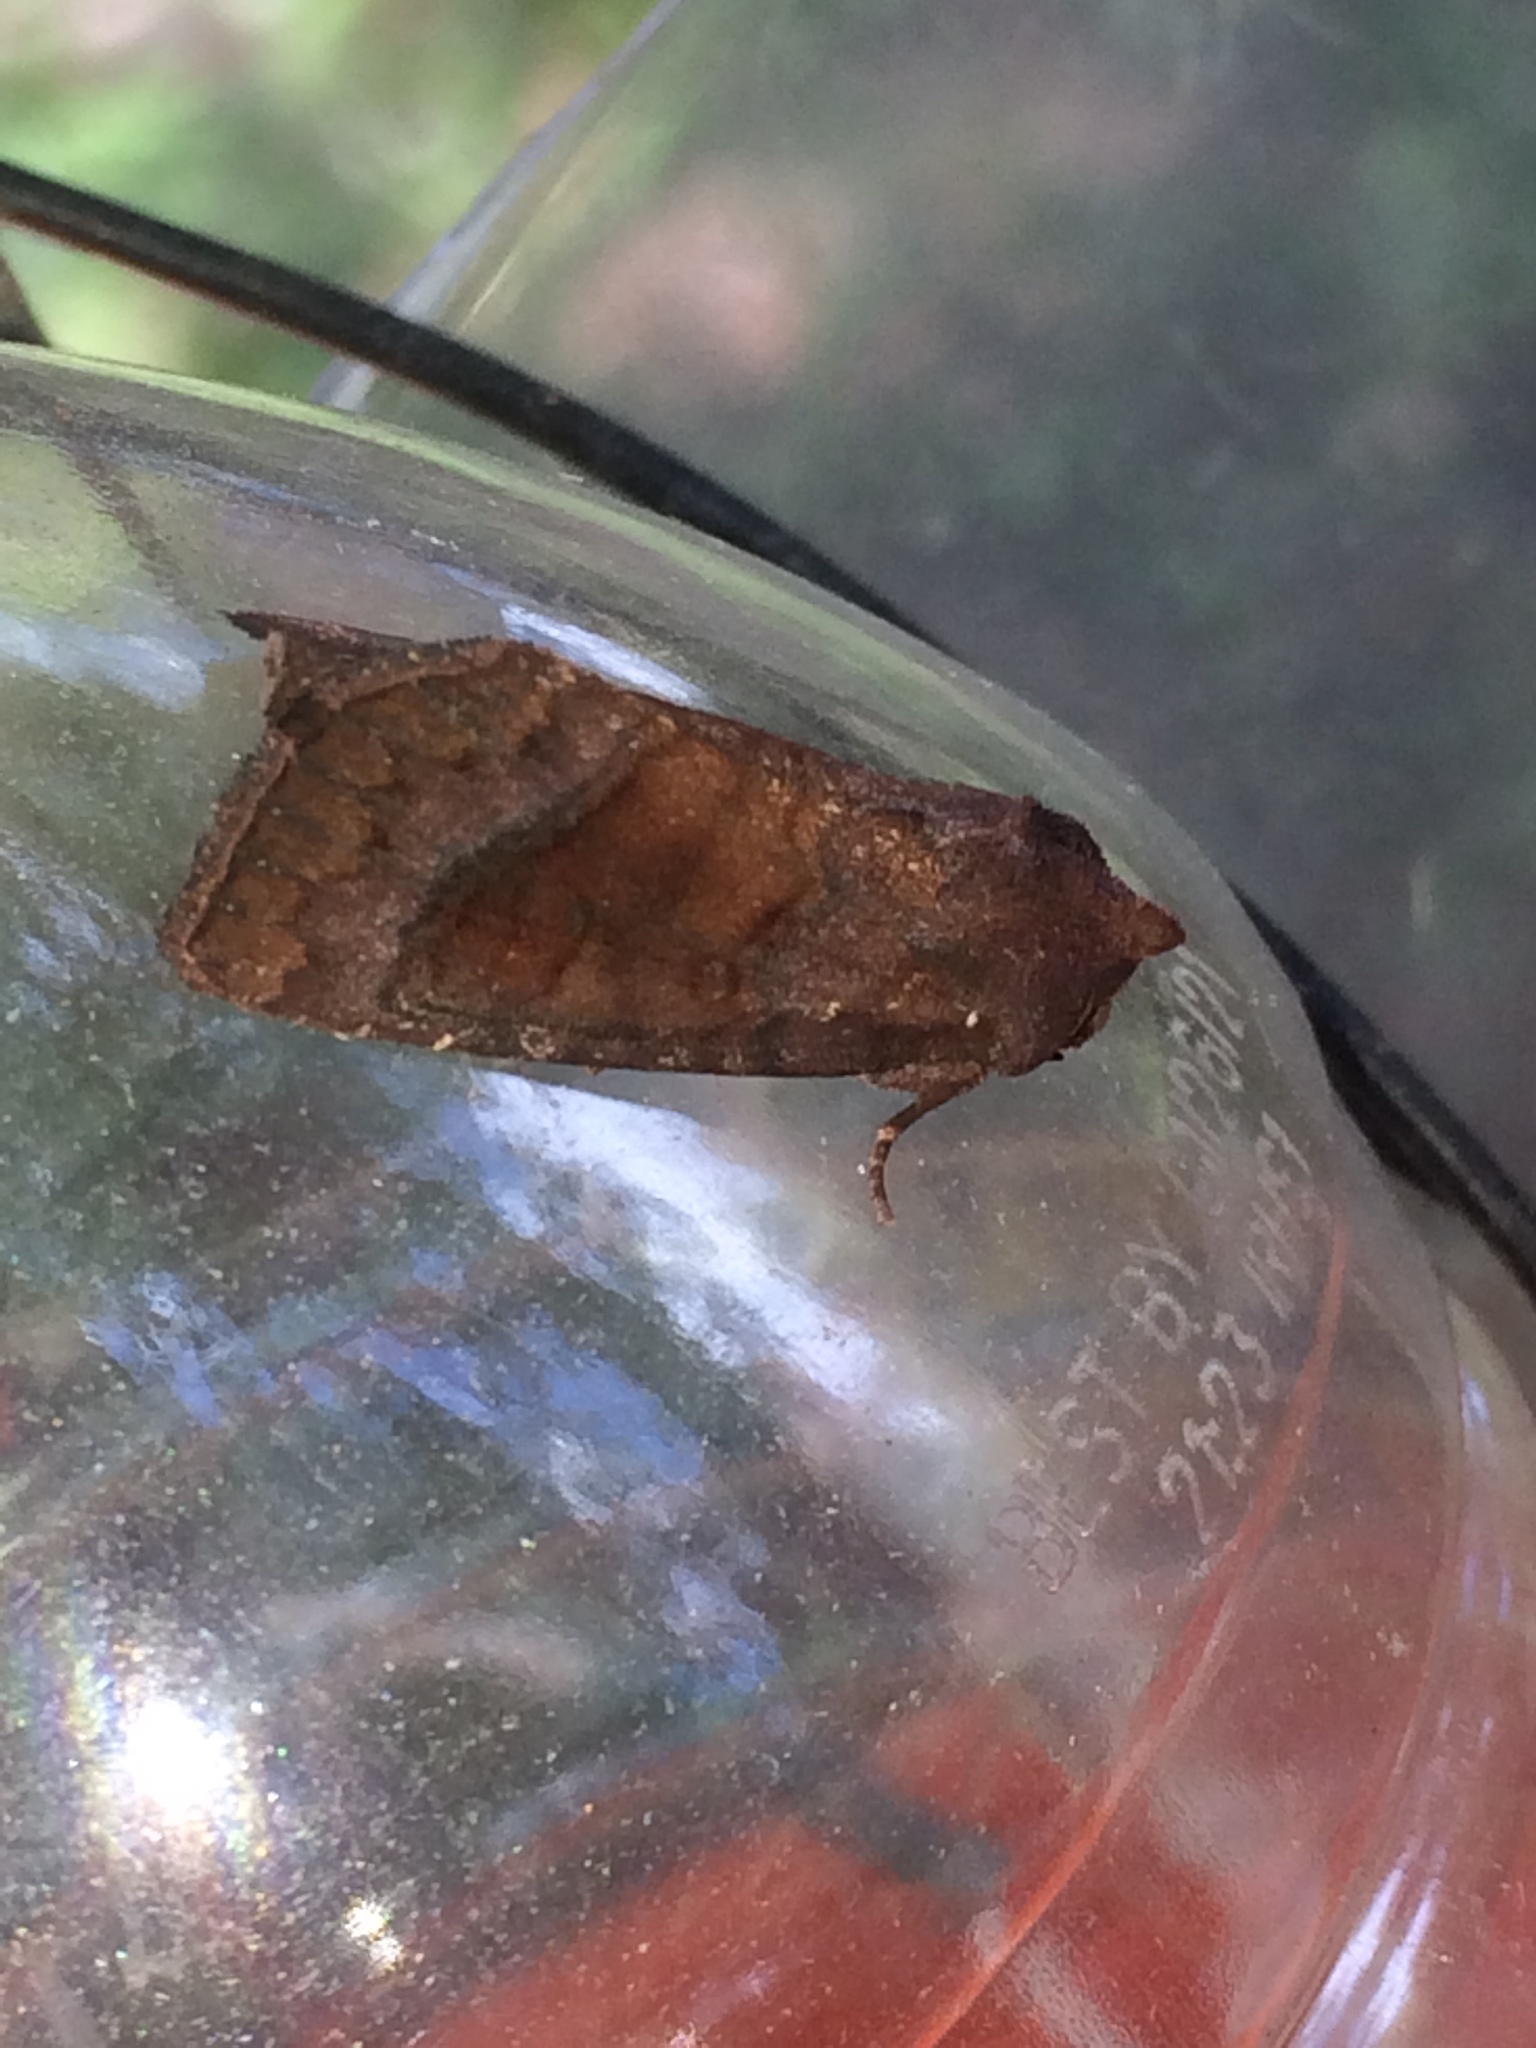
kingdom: Animalia
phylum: Arthropoda
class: Insecta
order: Lepidoptera
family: Noctuidae
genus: Parapamea
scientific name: Parapamea buffaloensis
